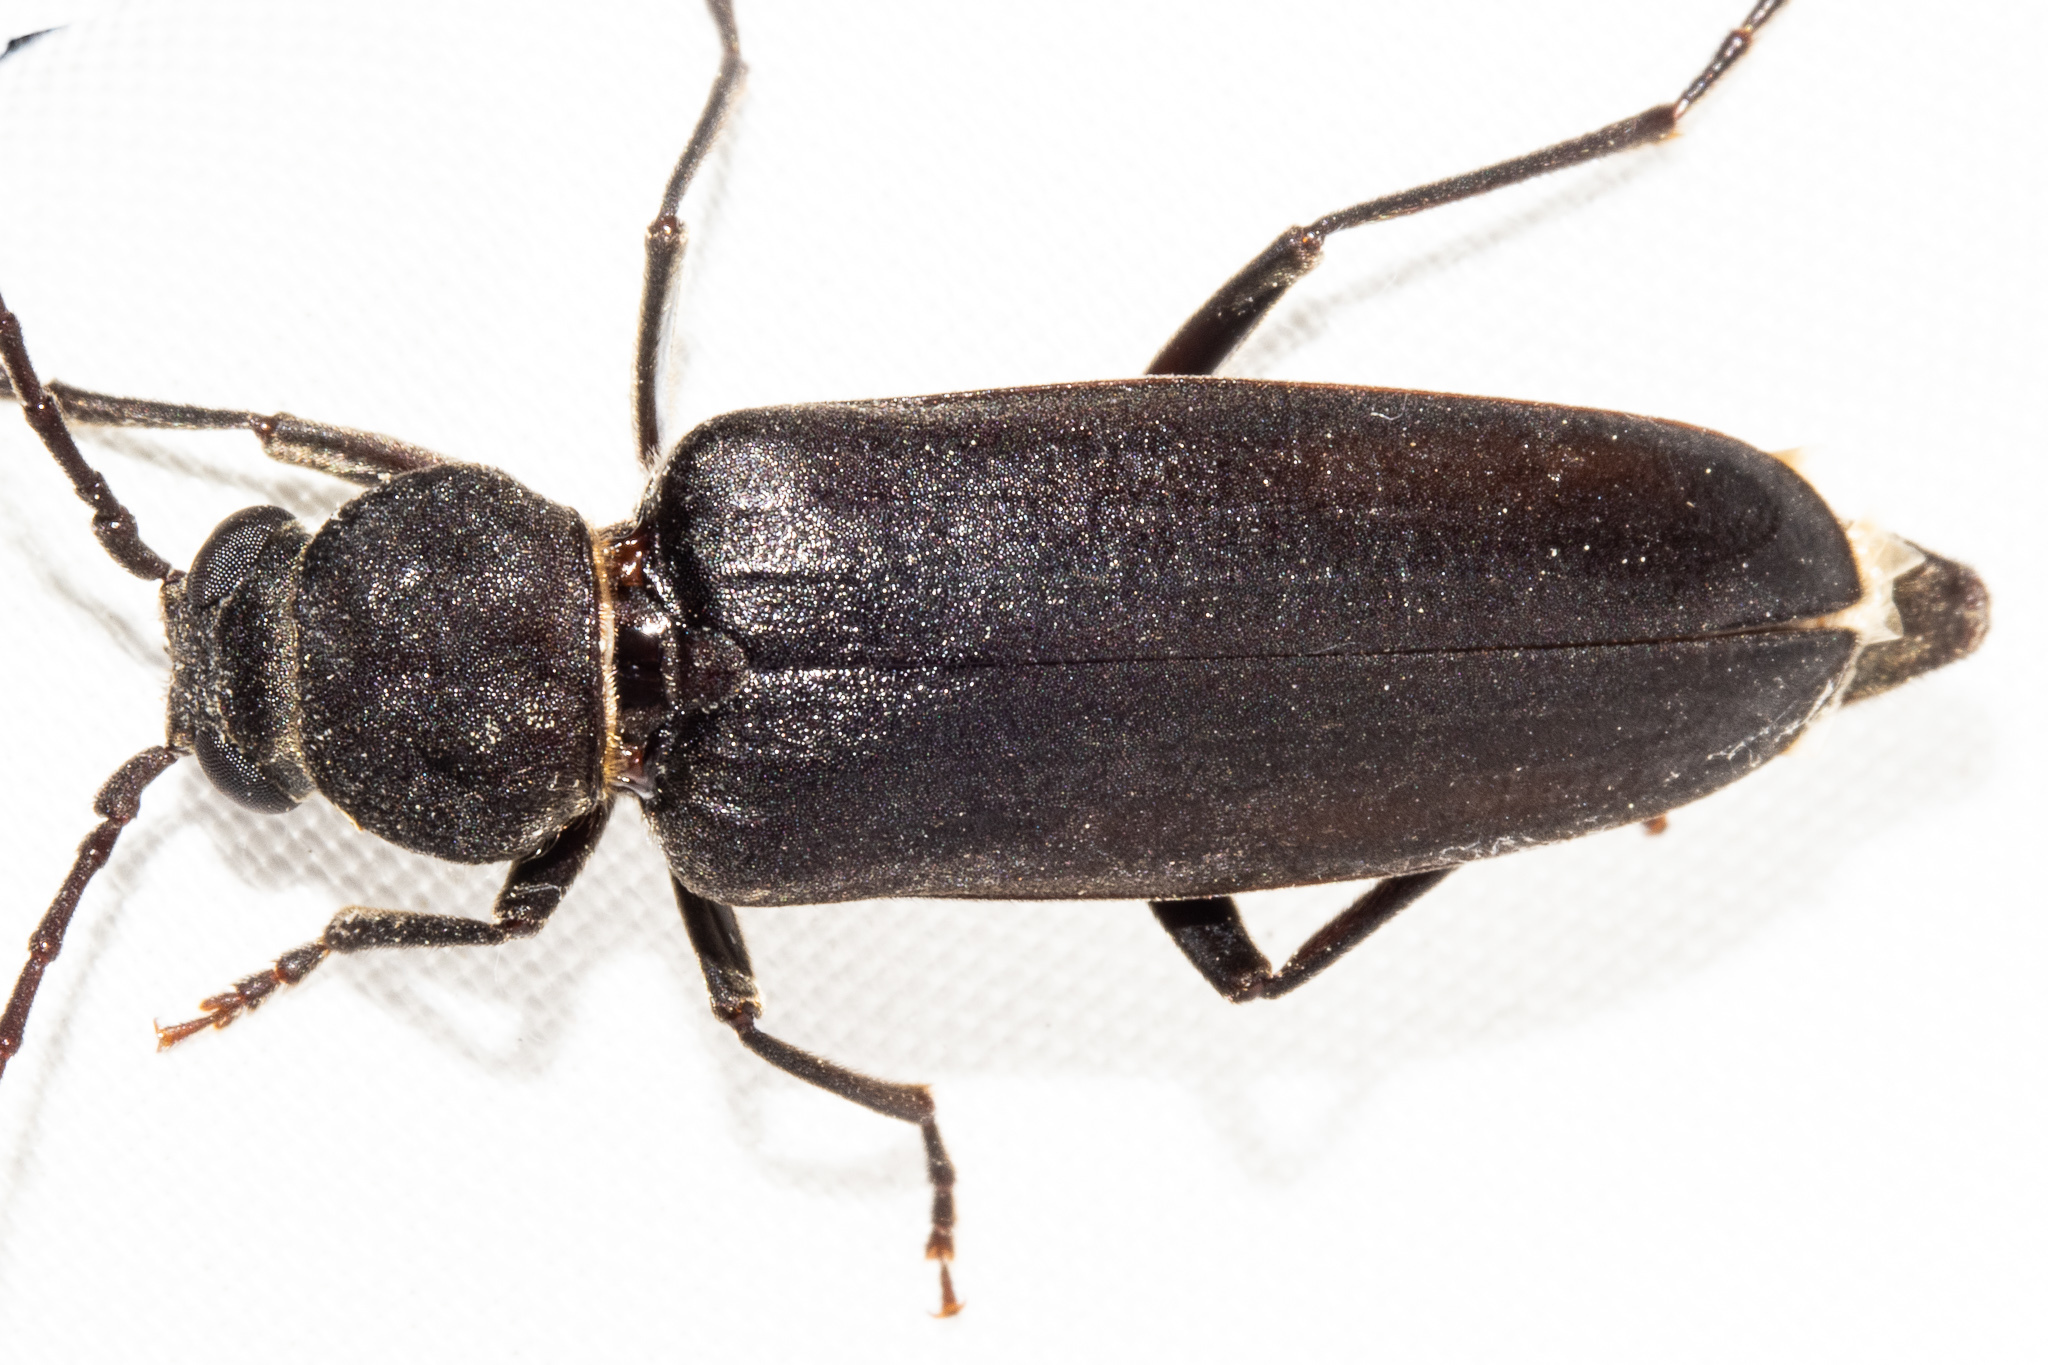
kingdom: Animalia
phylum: Arthropoda
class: Insecta
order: Coleoptera
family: Cerambycidae
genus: Arhopalus
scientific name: Arhopalus ferus
